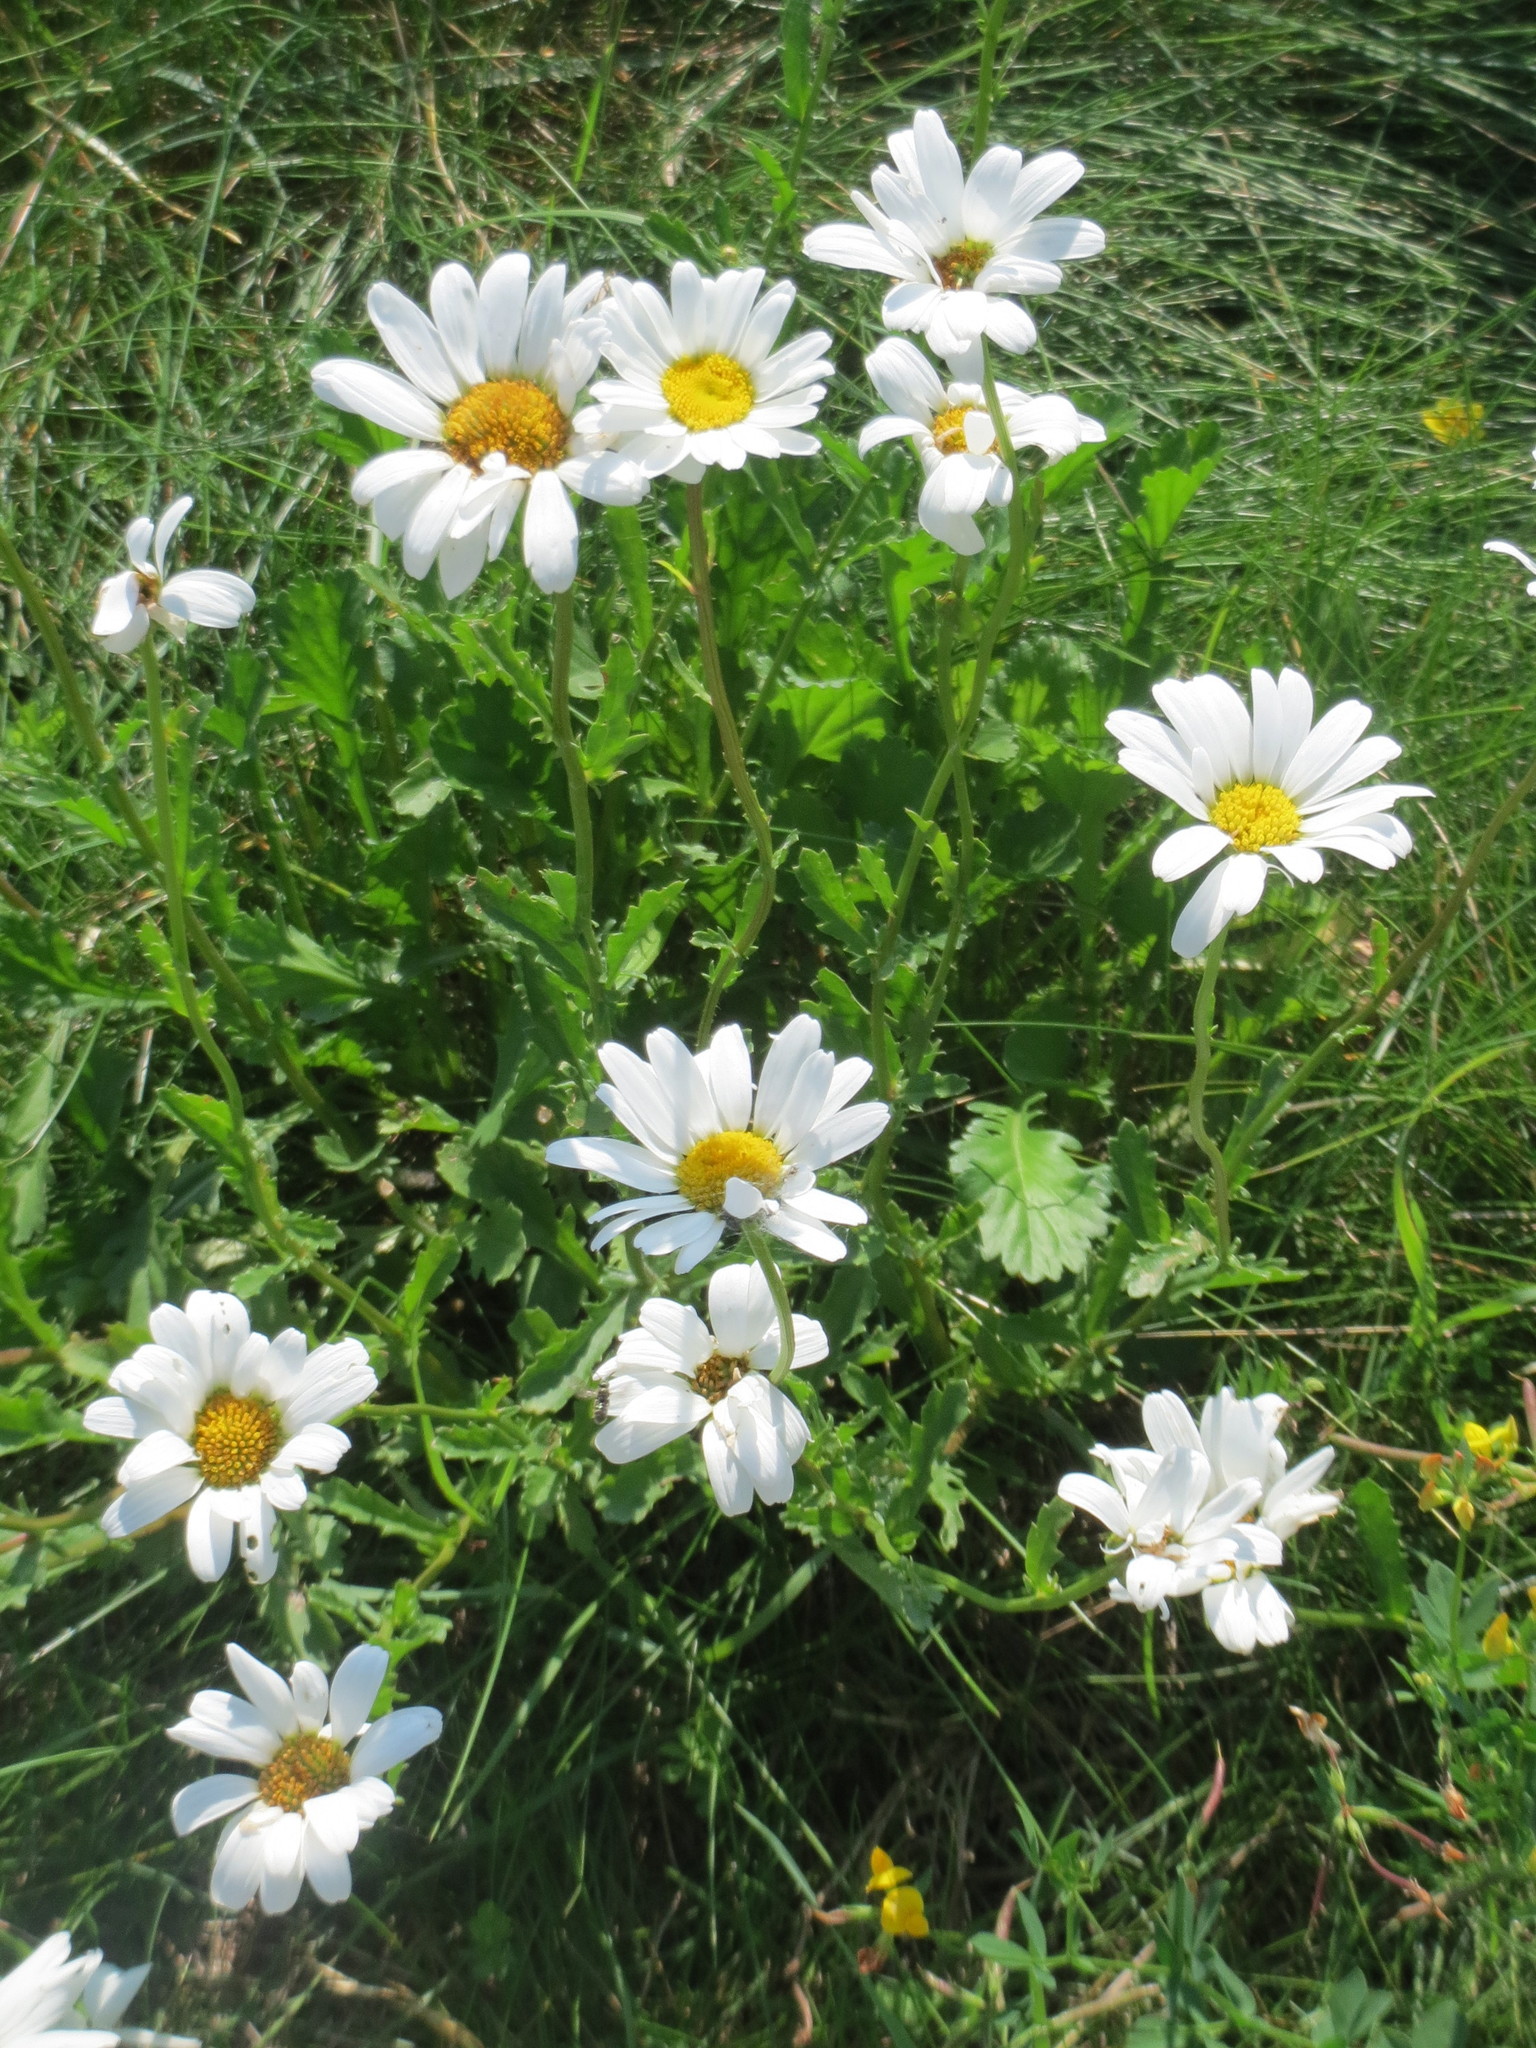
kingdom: Plantae
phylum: Tracheophyta
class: Magnoliopsida
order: Asterales
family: Asteraceae
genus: Leucanthemum
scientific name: Leucanthemum vulgare
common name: Oxeye daisy
